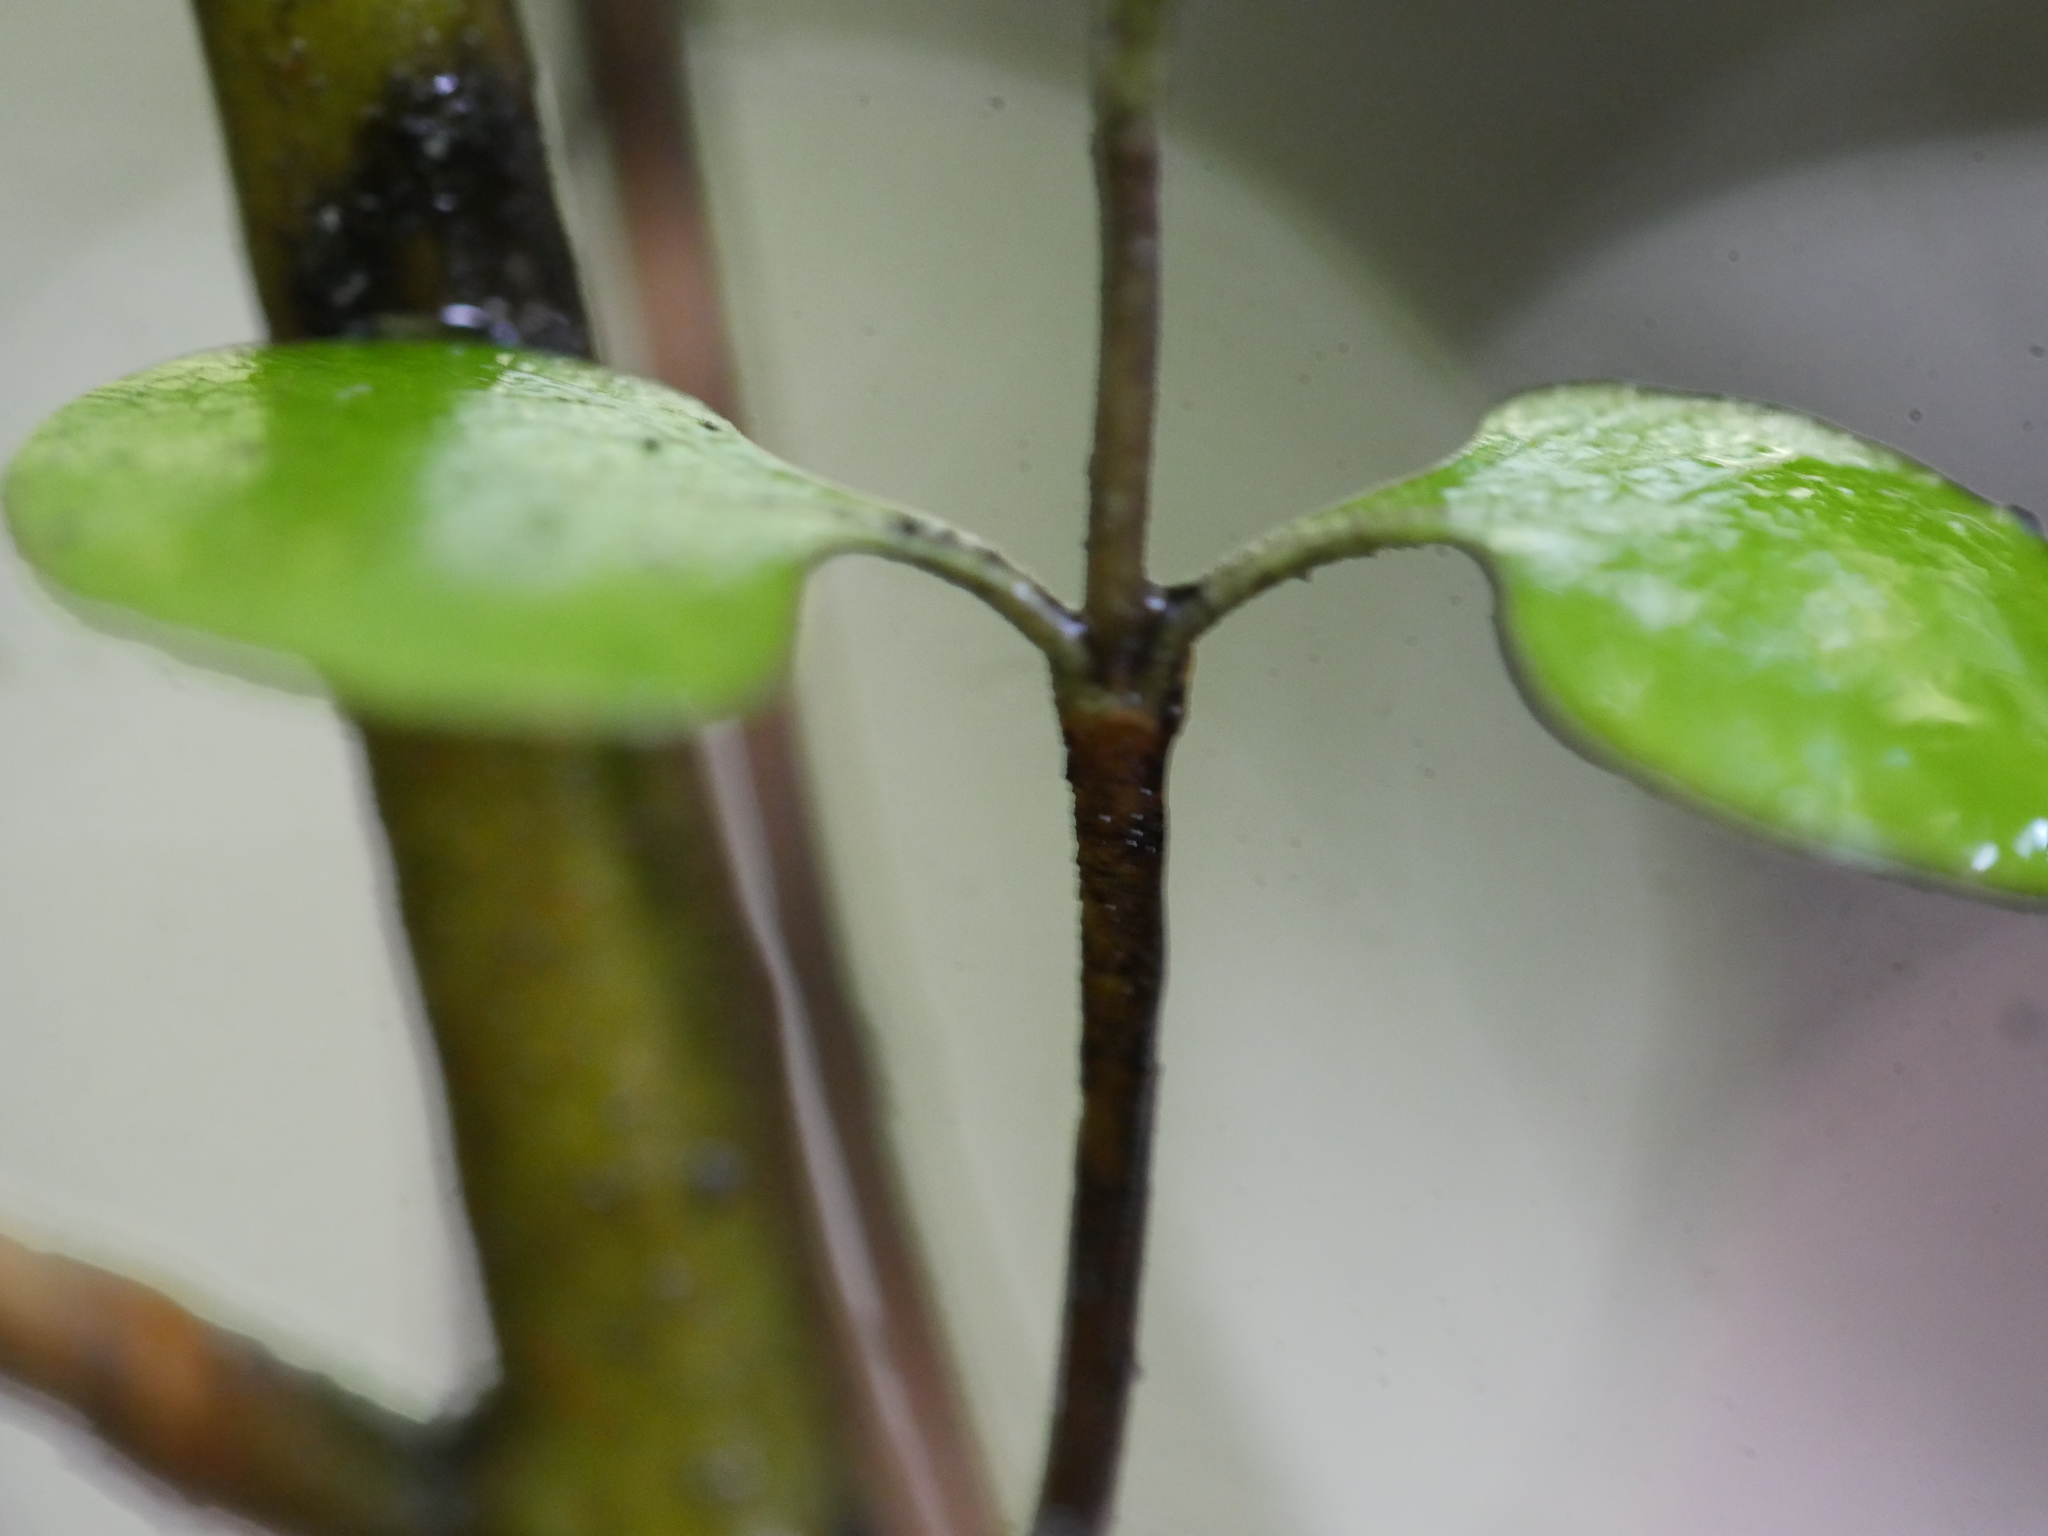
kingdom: Plantae
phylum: Tracheophyta
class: Magnoliopsida
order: Gentianales
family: Rubiaceae
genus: Coprosma
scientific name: Coprosma spathulata
